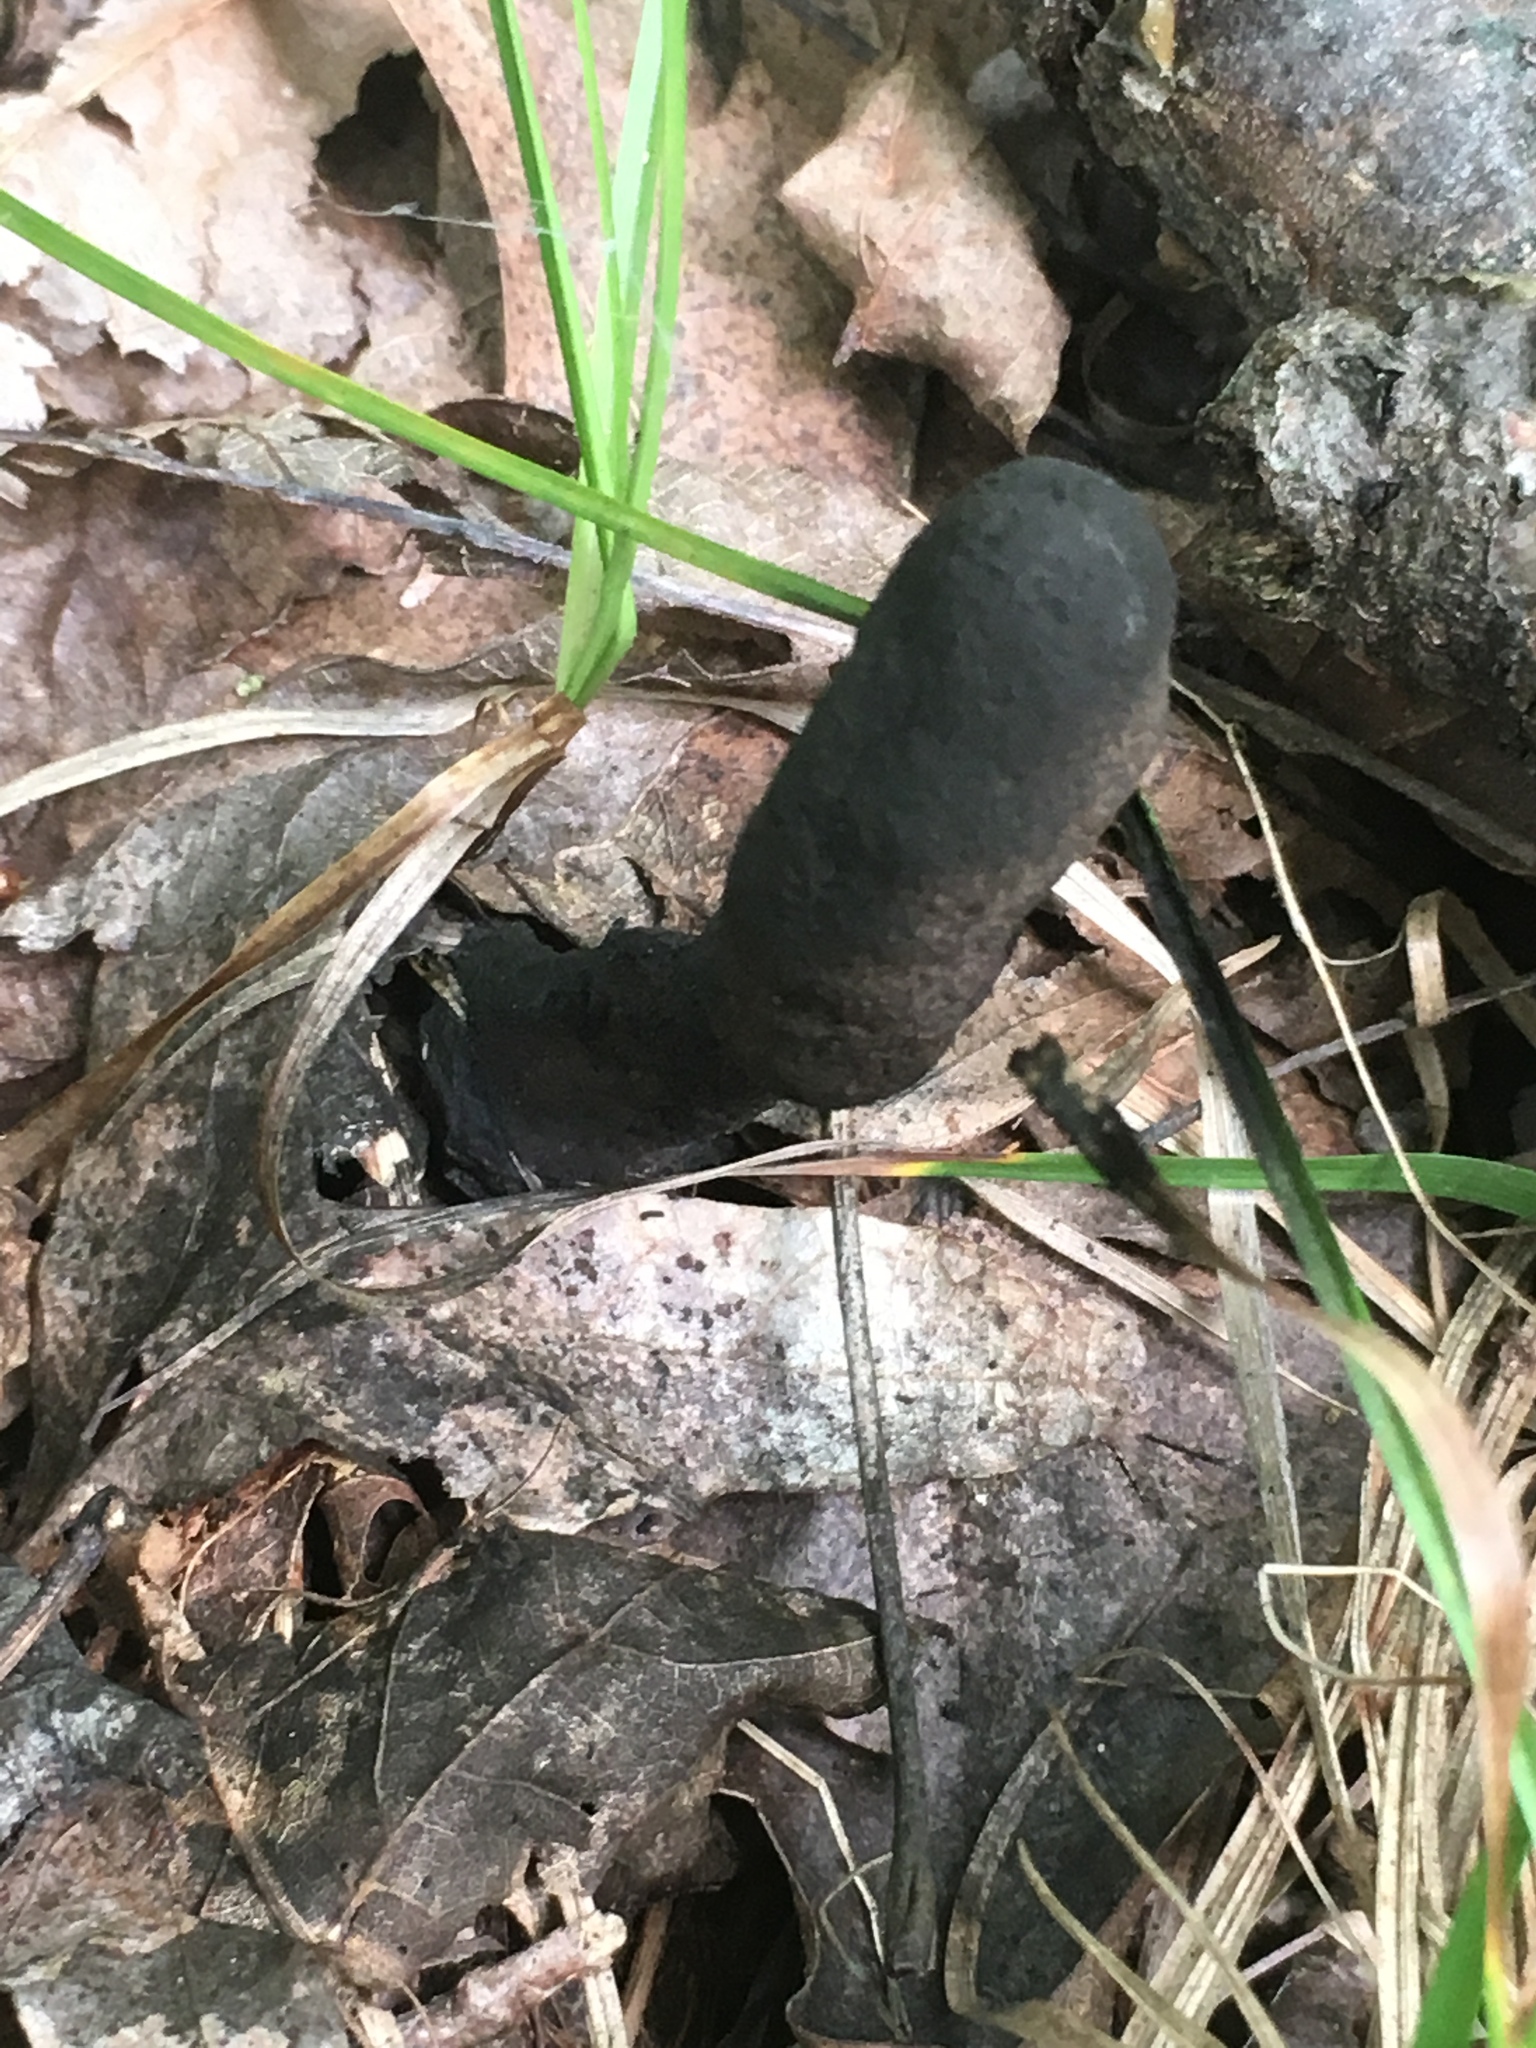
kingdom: Fungi
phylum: Ascomycota
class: Sordariomycetes
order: Xylariales
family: Xylariaceae
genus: Xylaria
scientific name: Xylaria polymorpha
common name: Dead man's fingers
